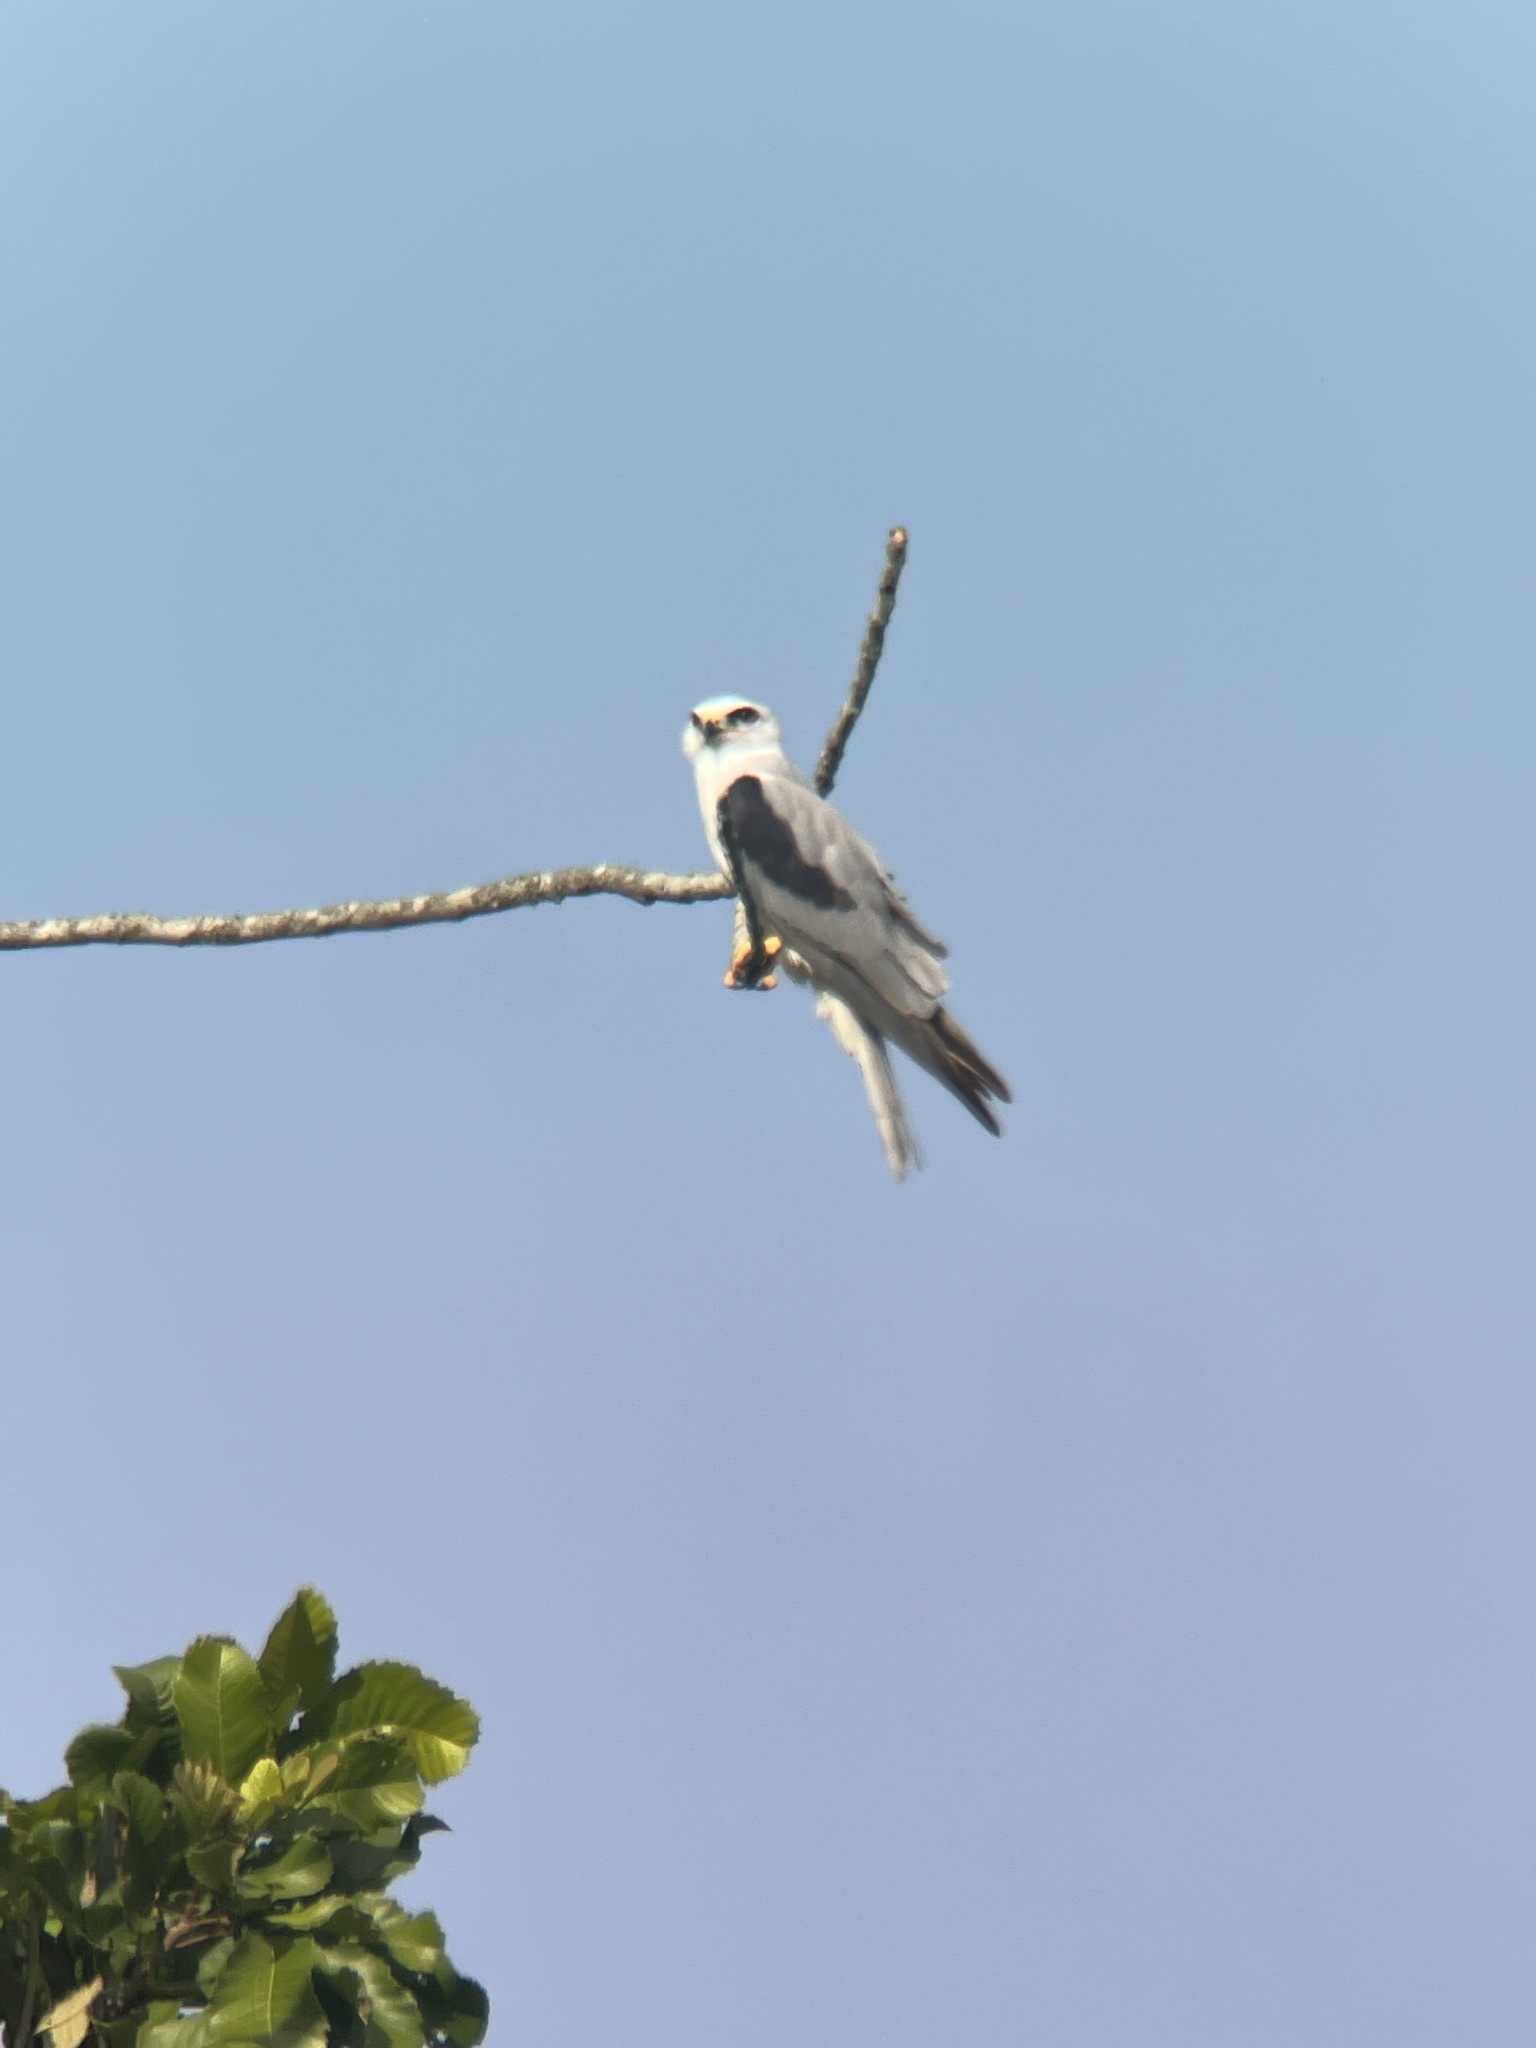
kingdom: Animalia
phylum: Chordata
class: Aves
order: Accipitriformes
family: Accipitridae
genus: Elanus
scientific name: Elanus leucurus
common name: White-tailed kite
